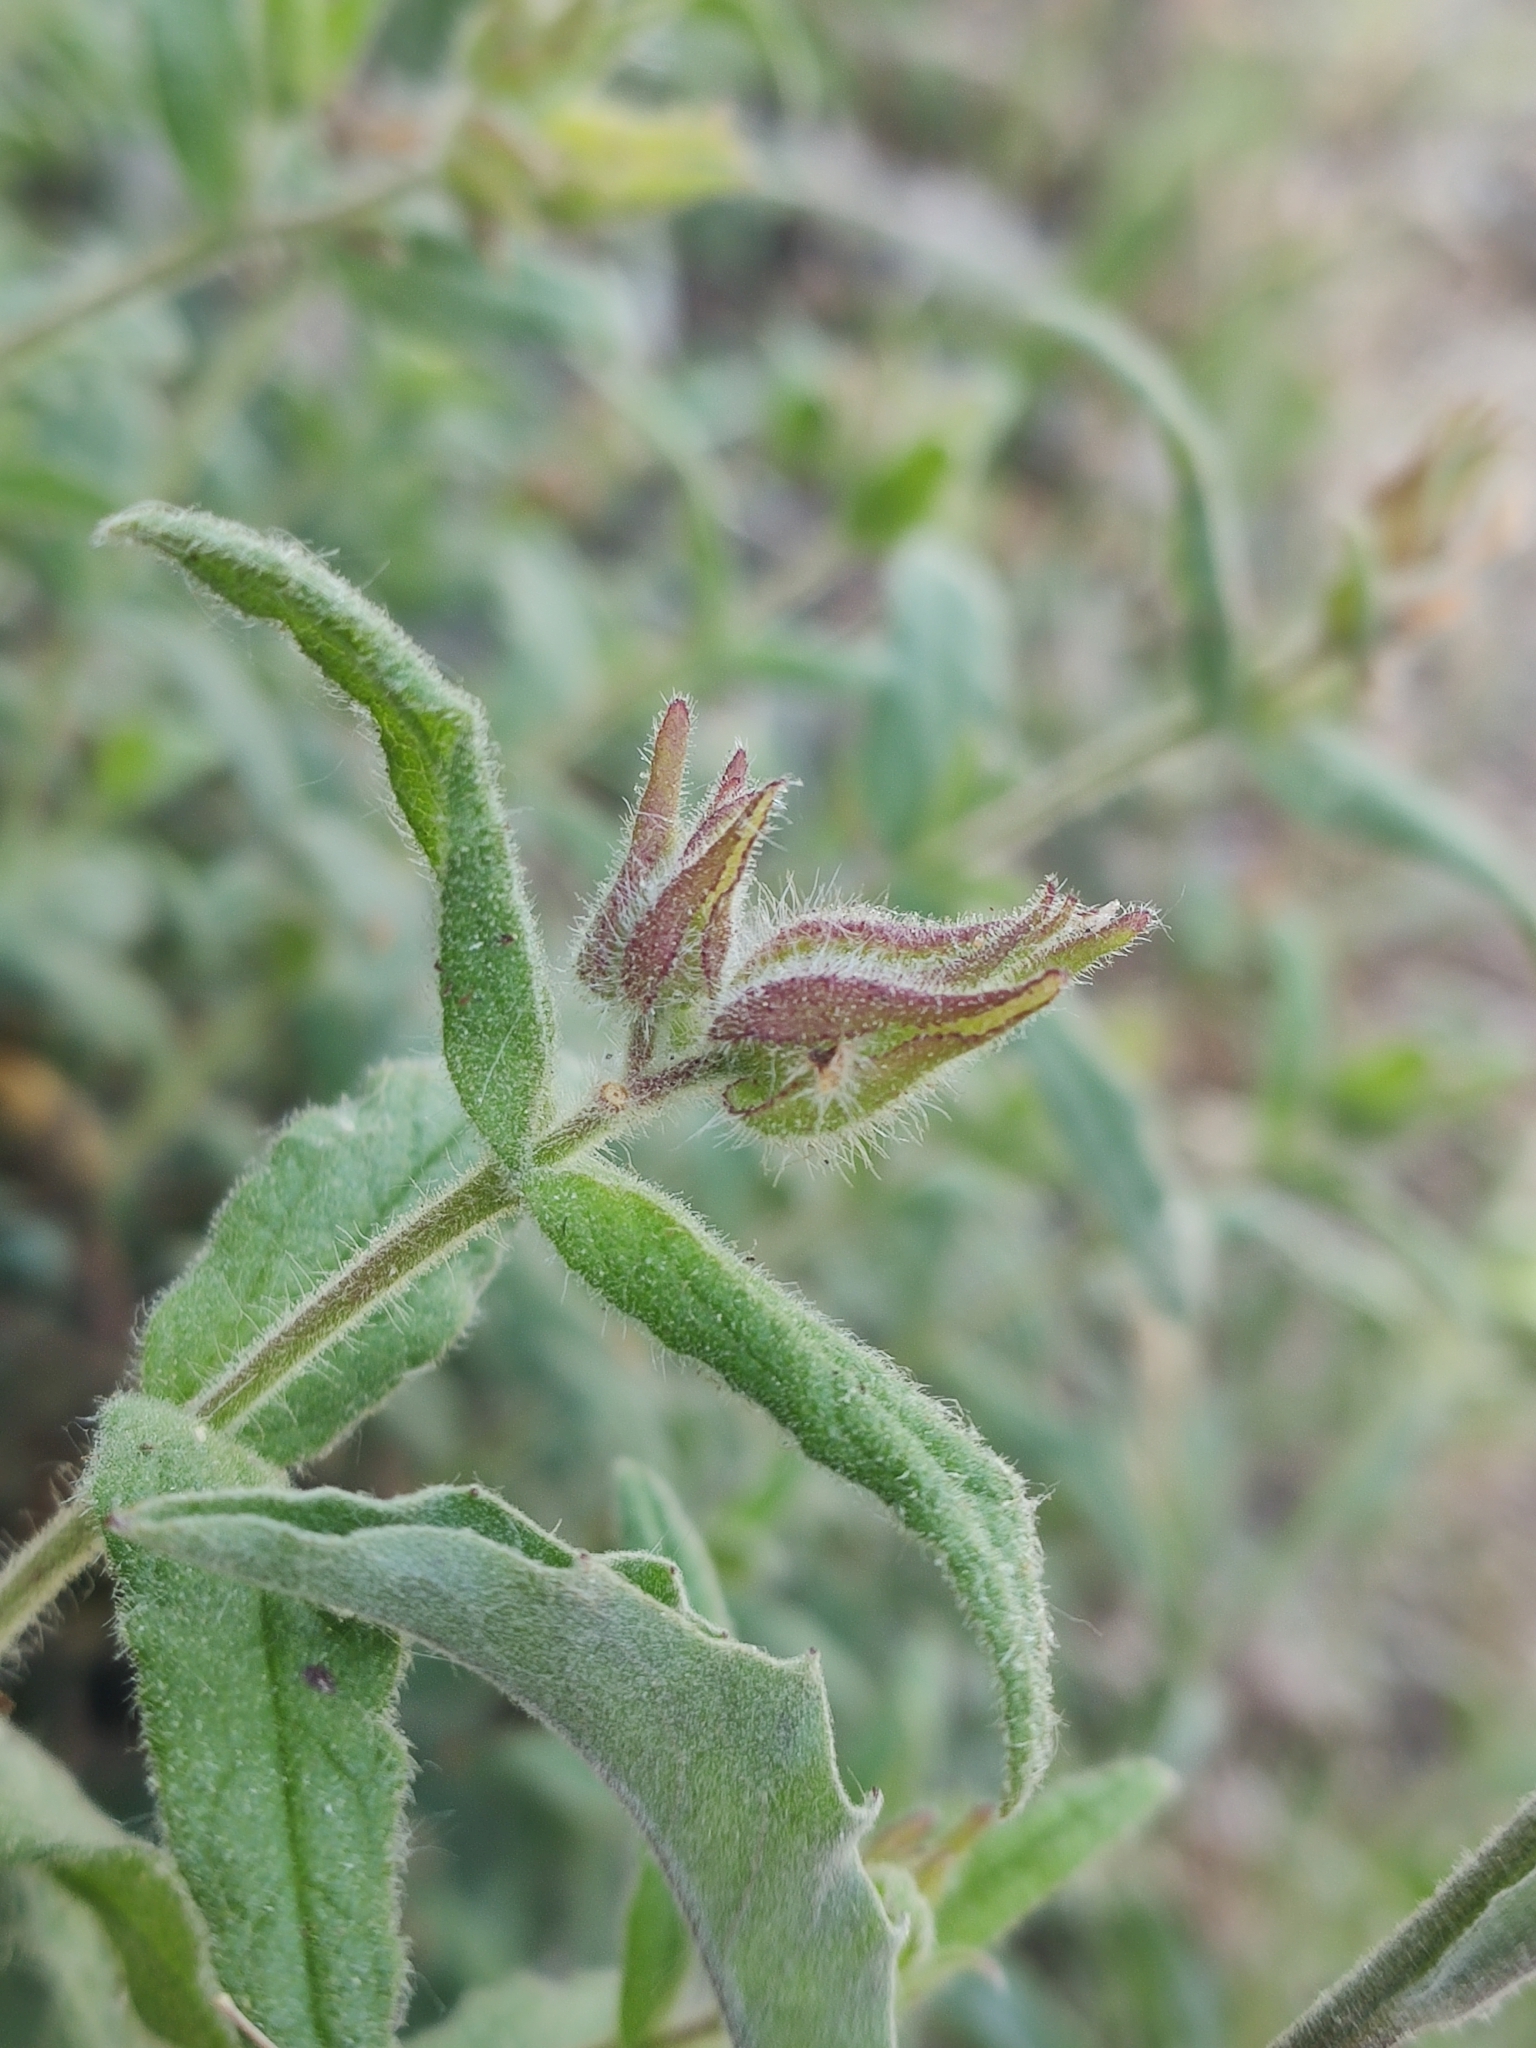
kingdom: Plantae
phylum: Tracheophyta
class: Magnoliopsida
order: Malvales
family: Cytinaceae
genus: Cytinus
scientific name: Cytinus hypocistis
